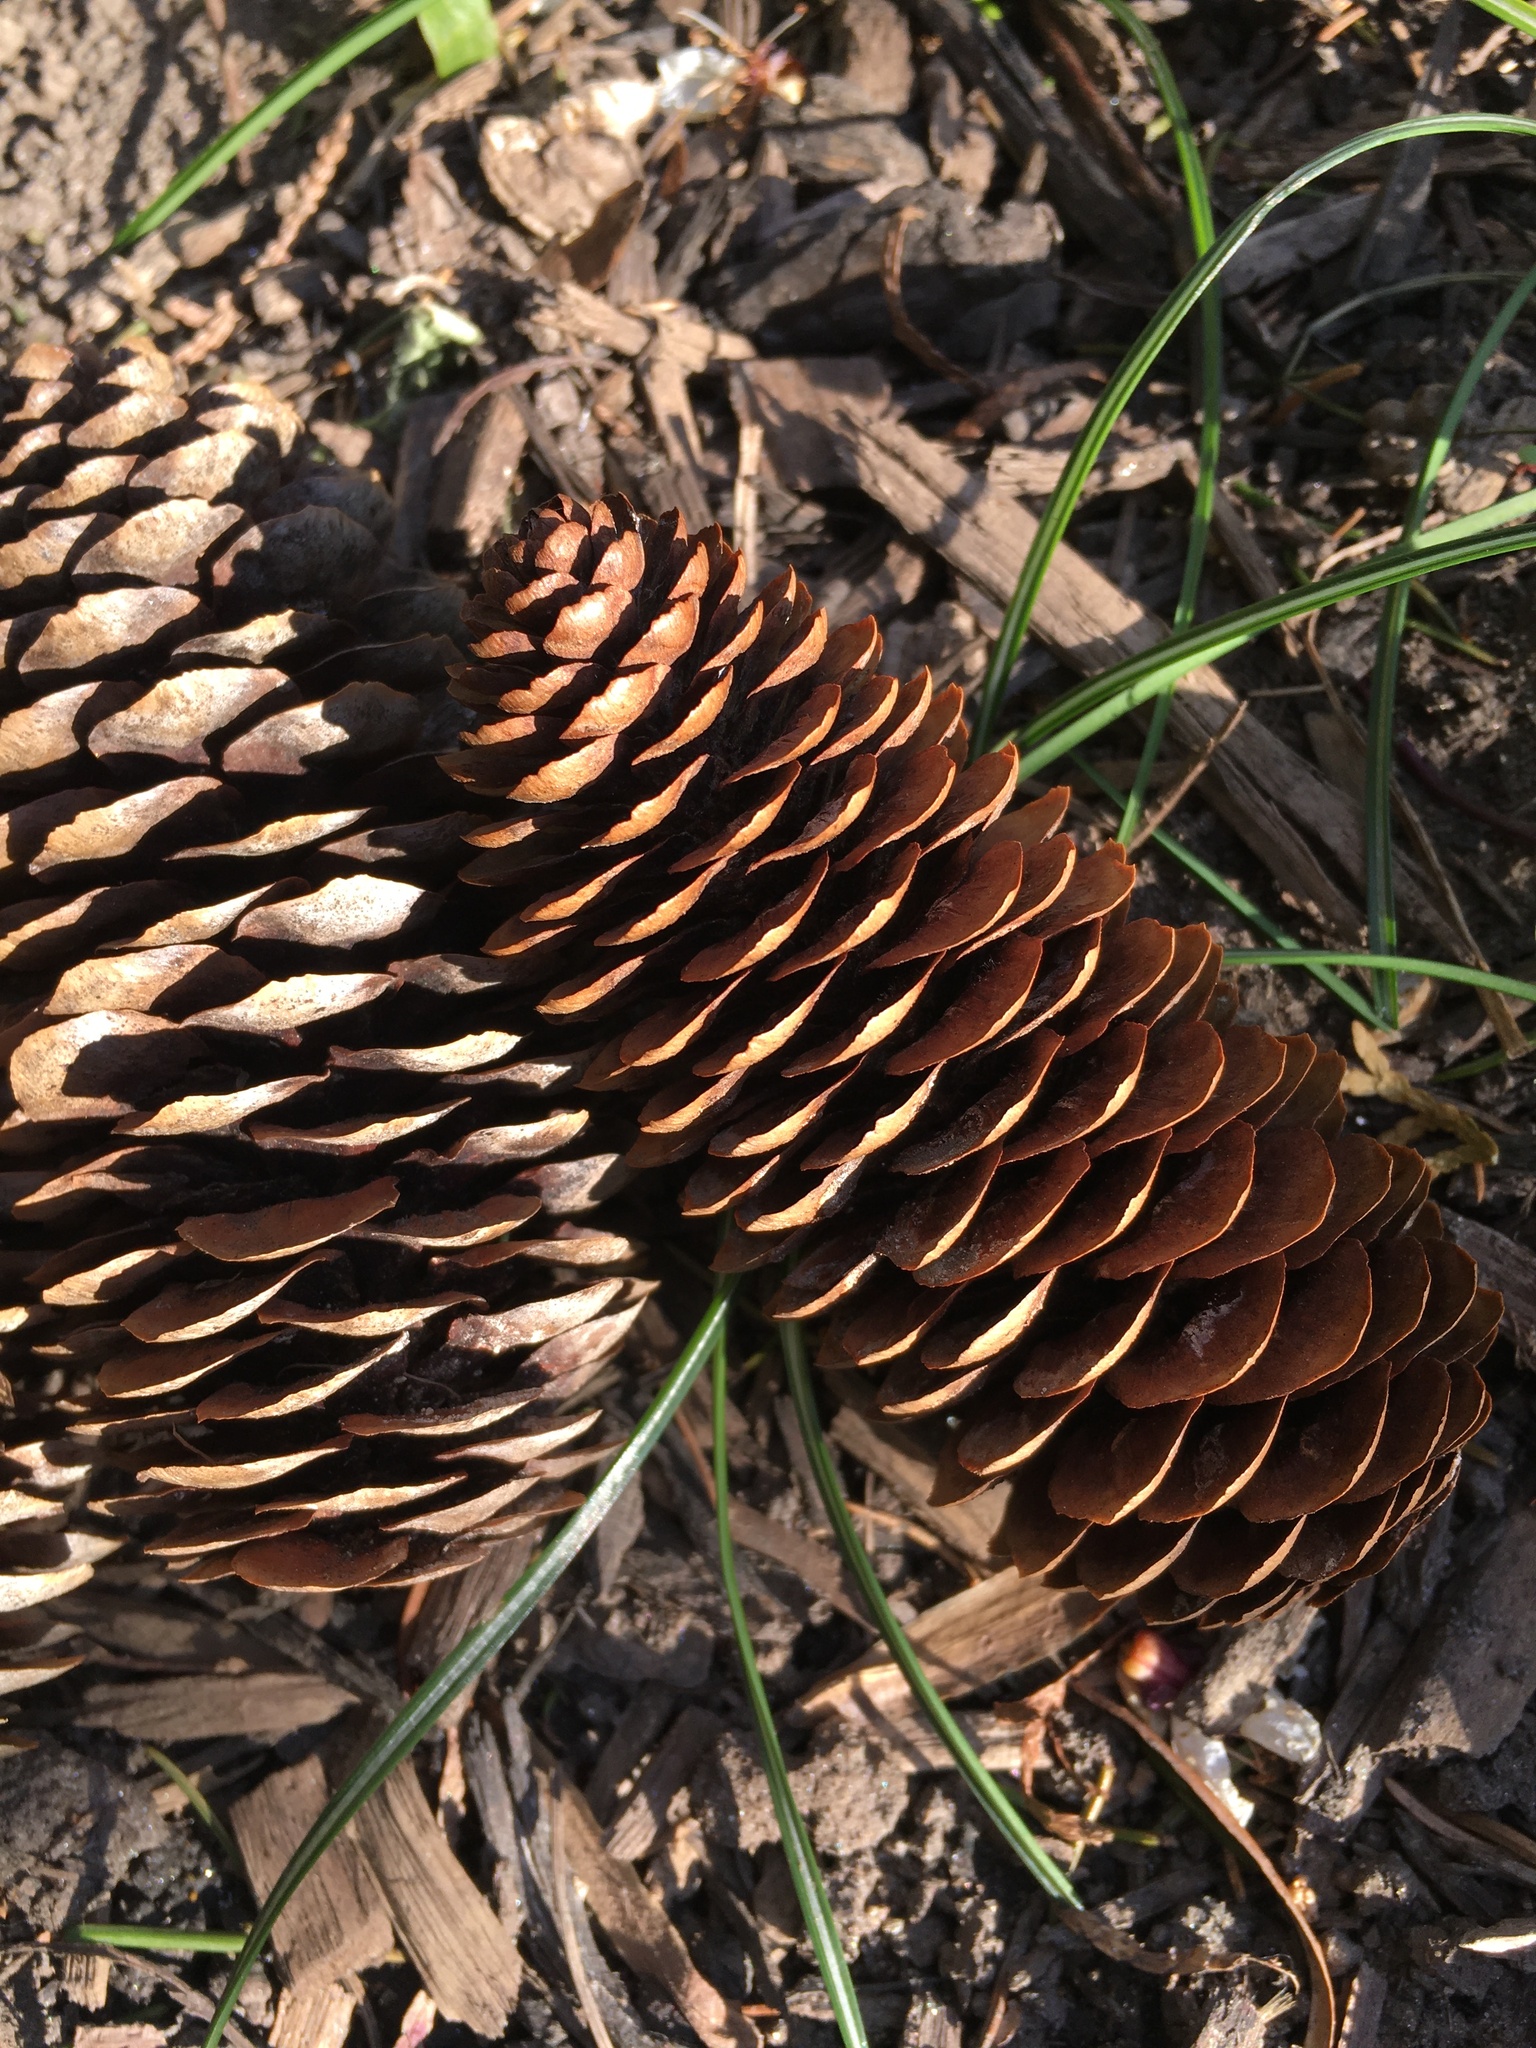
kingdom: Plantae
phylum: Tracheophyta
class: Pinopsida
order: Pinales
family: Pinaceae
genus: Picea
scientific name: Picea abies
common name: Norway spruce
